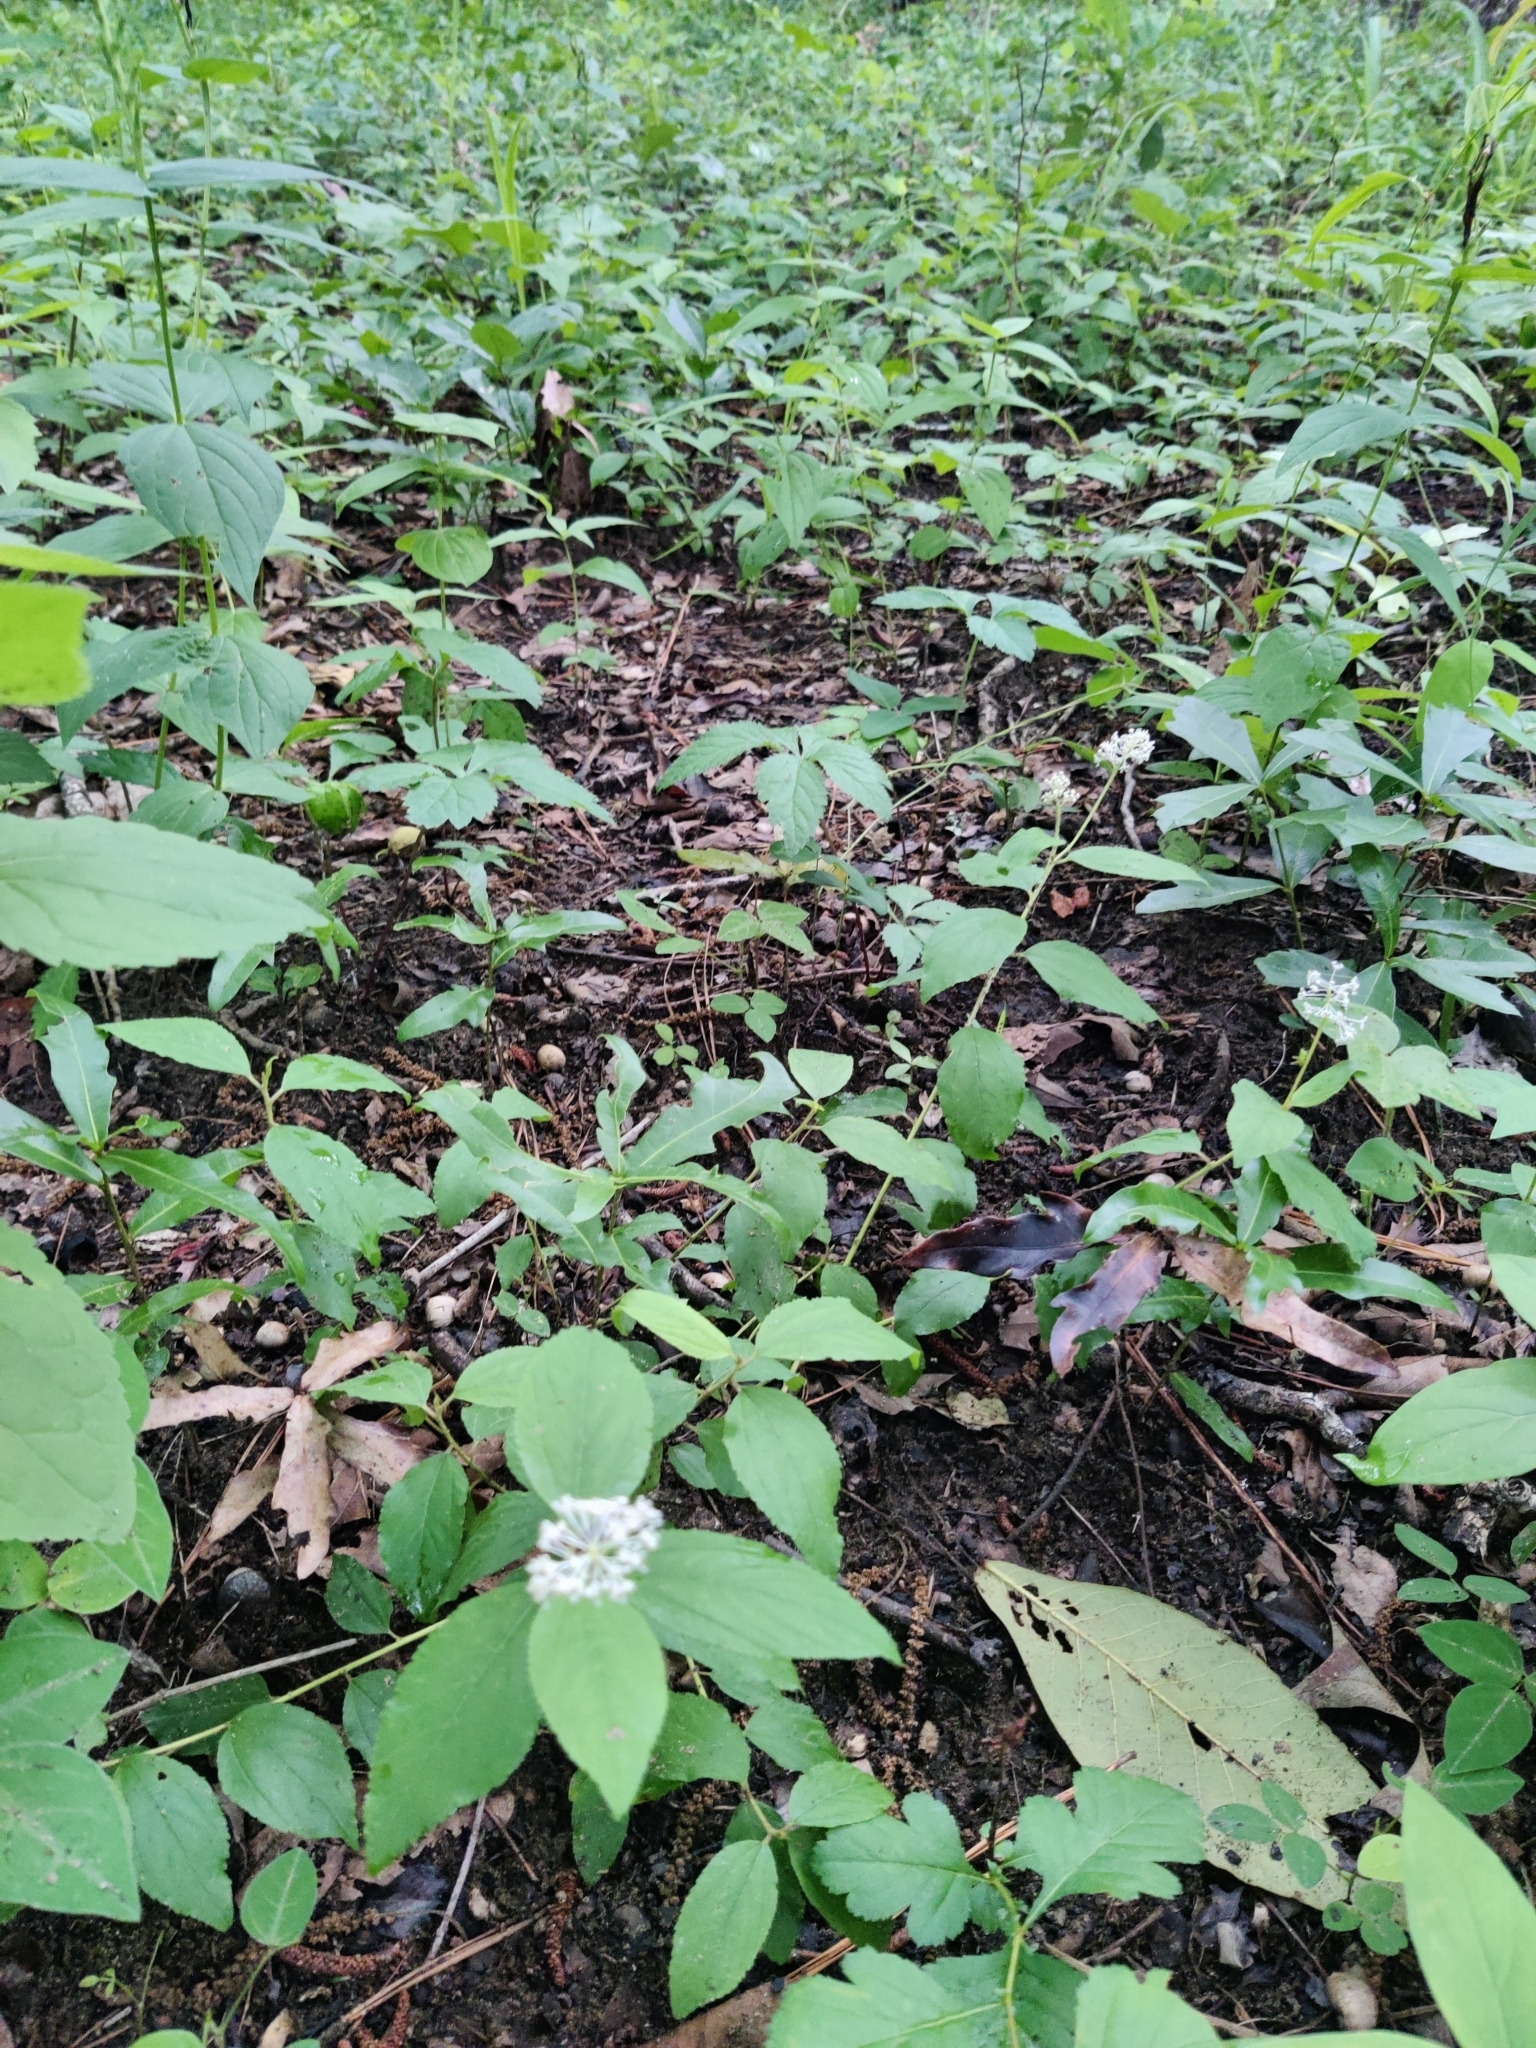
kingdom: Plantae
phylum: Tracheophyta
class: Magnoliopsida
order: Rosales
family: Rhamnaceae
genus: Ceanothus
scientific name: Ceanothus americanus
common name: Redroot
